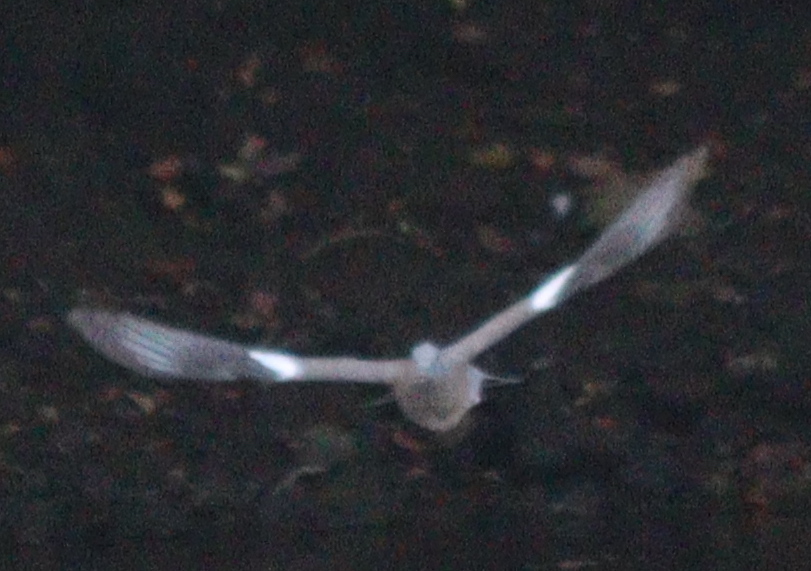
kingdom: Animalia
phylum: Chordata
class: Aves
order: Columbiformes
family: Columbidae
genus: Columba
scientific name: Columba palumbus
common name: Common wood pigeon
